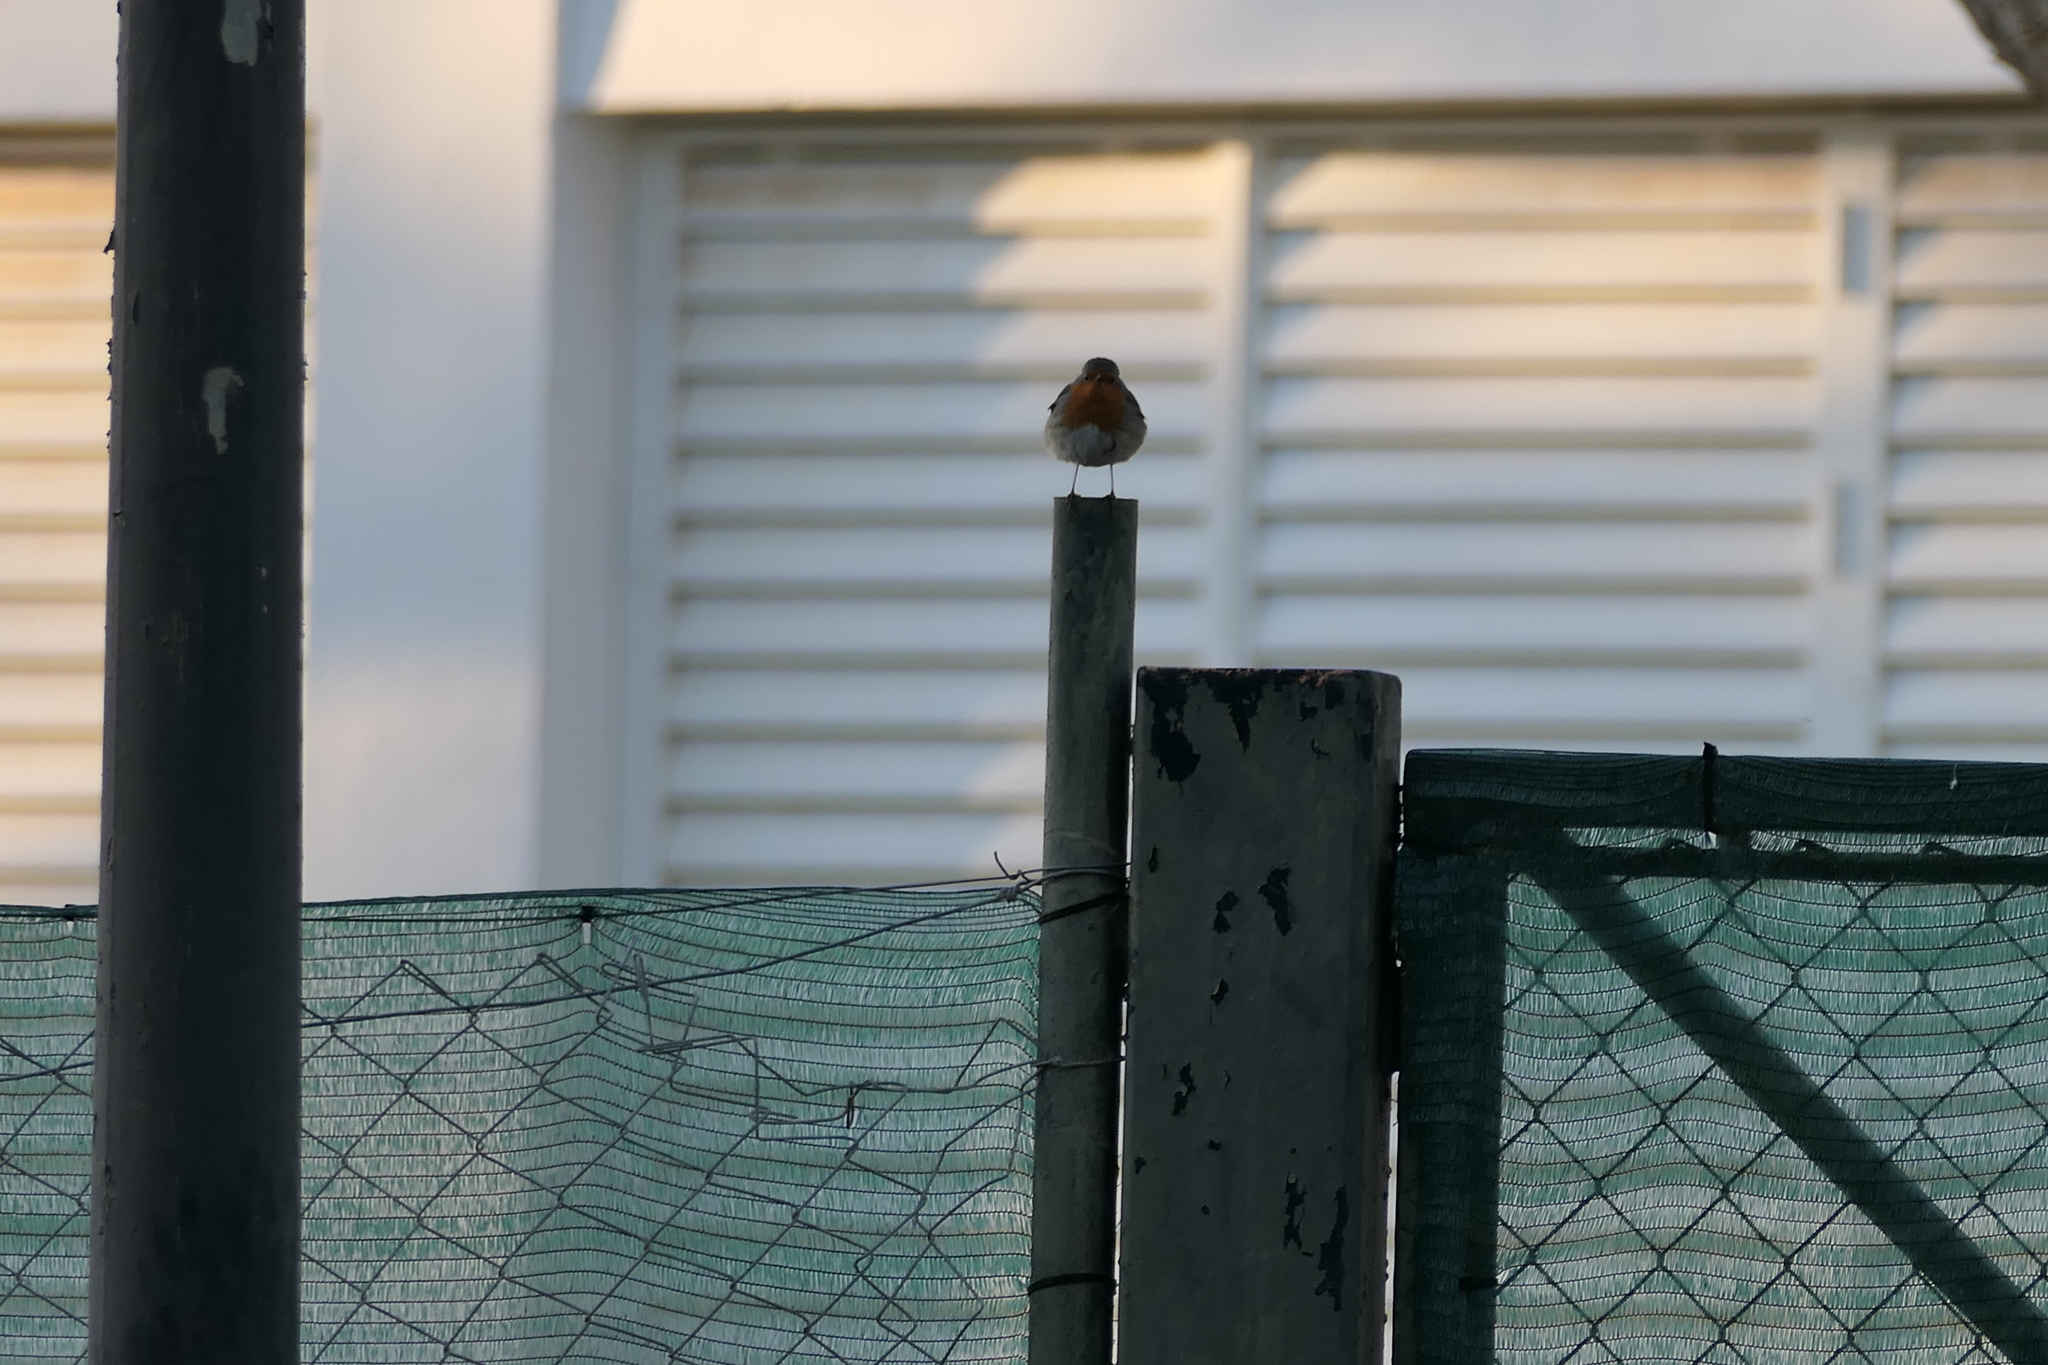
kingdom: Animalia
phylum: Chordata
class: Aves
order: Passeriformes
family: Muscicapidae
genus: Erithacus
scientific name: Erithacus rubecula
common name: European robin
